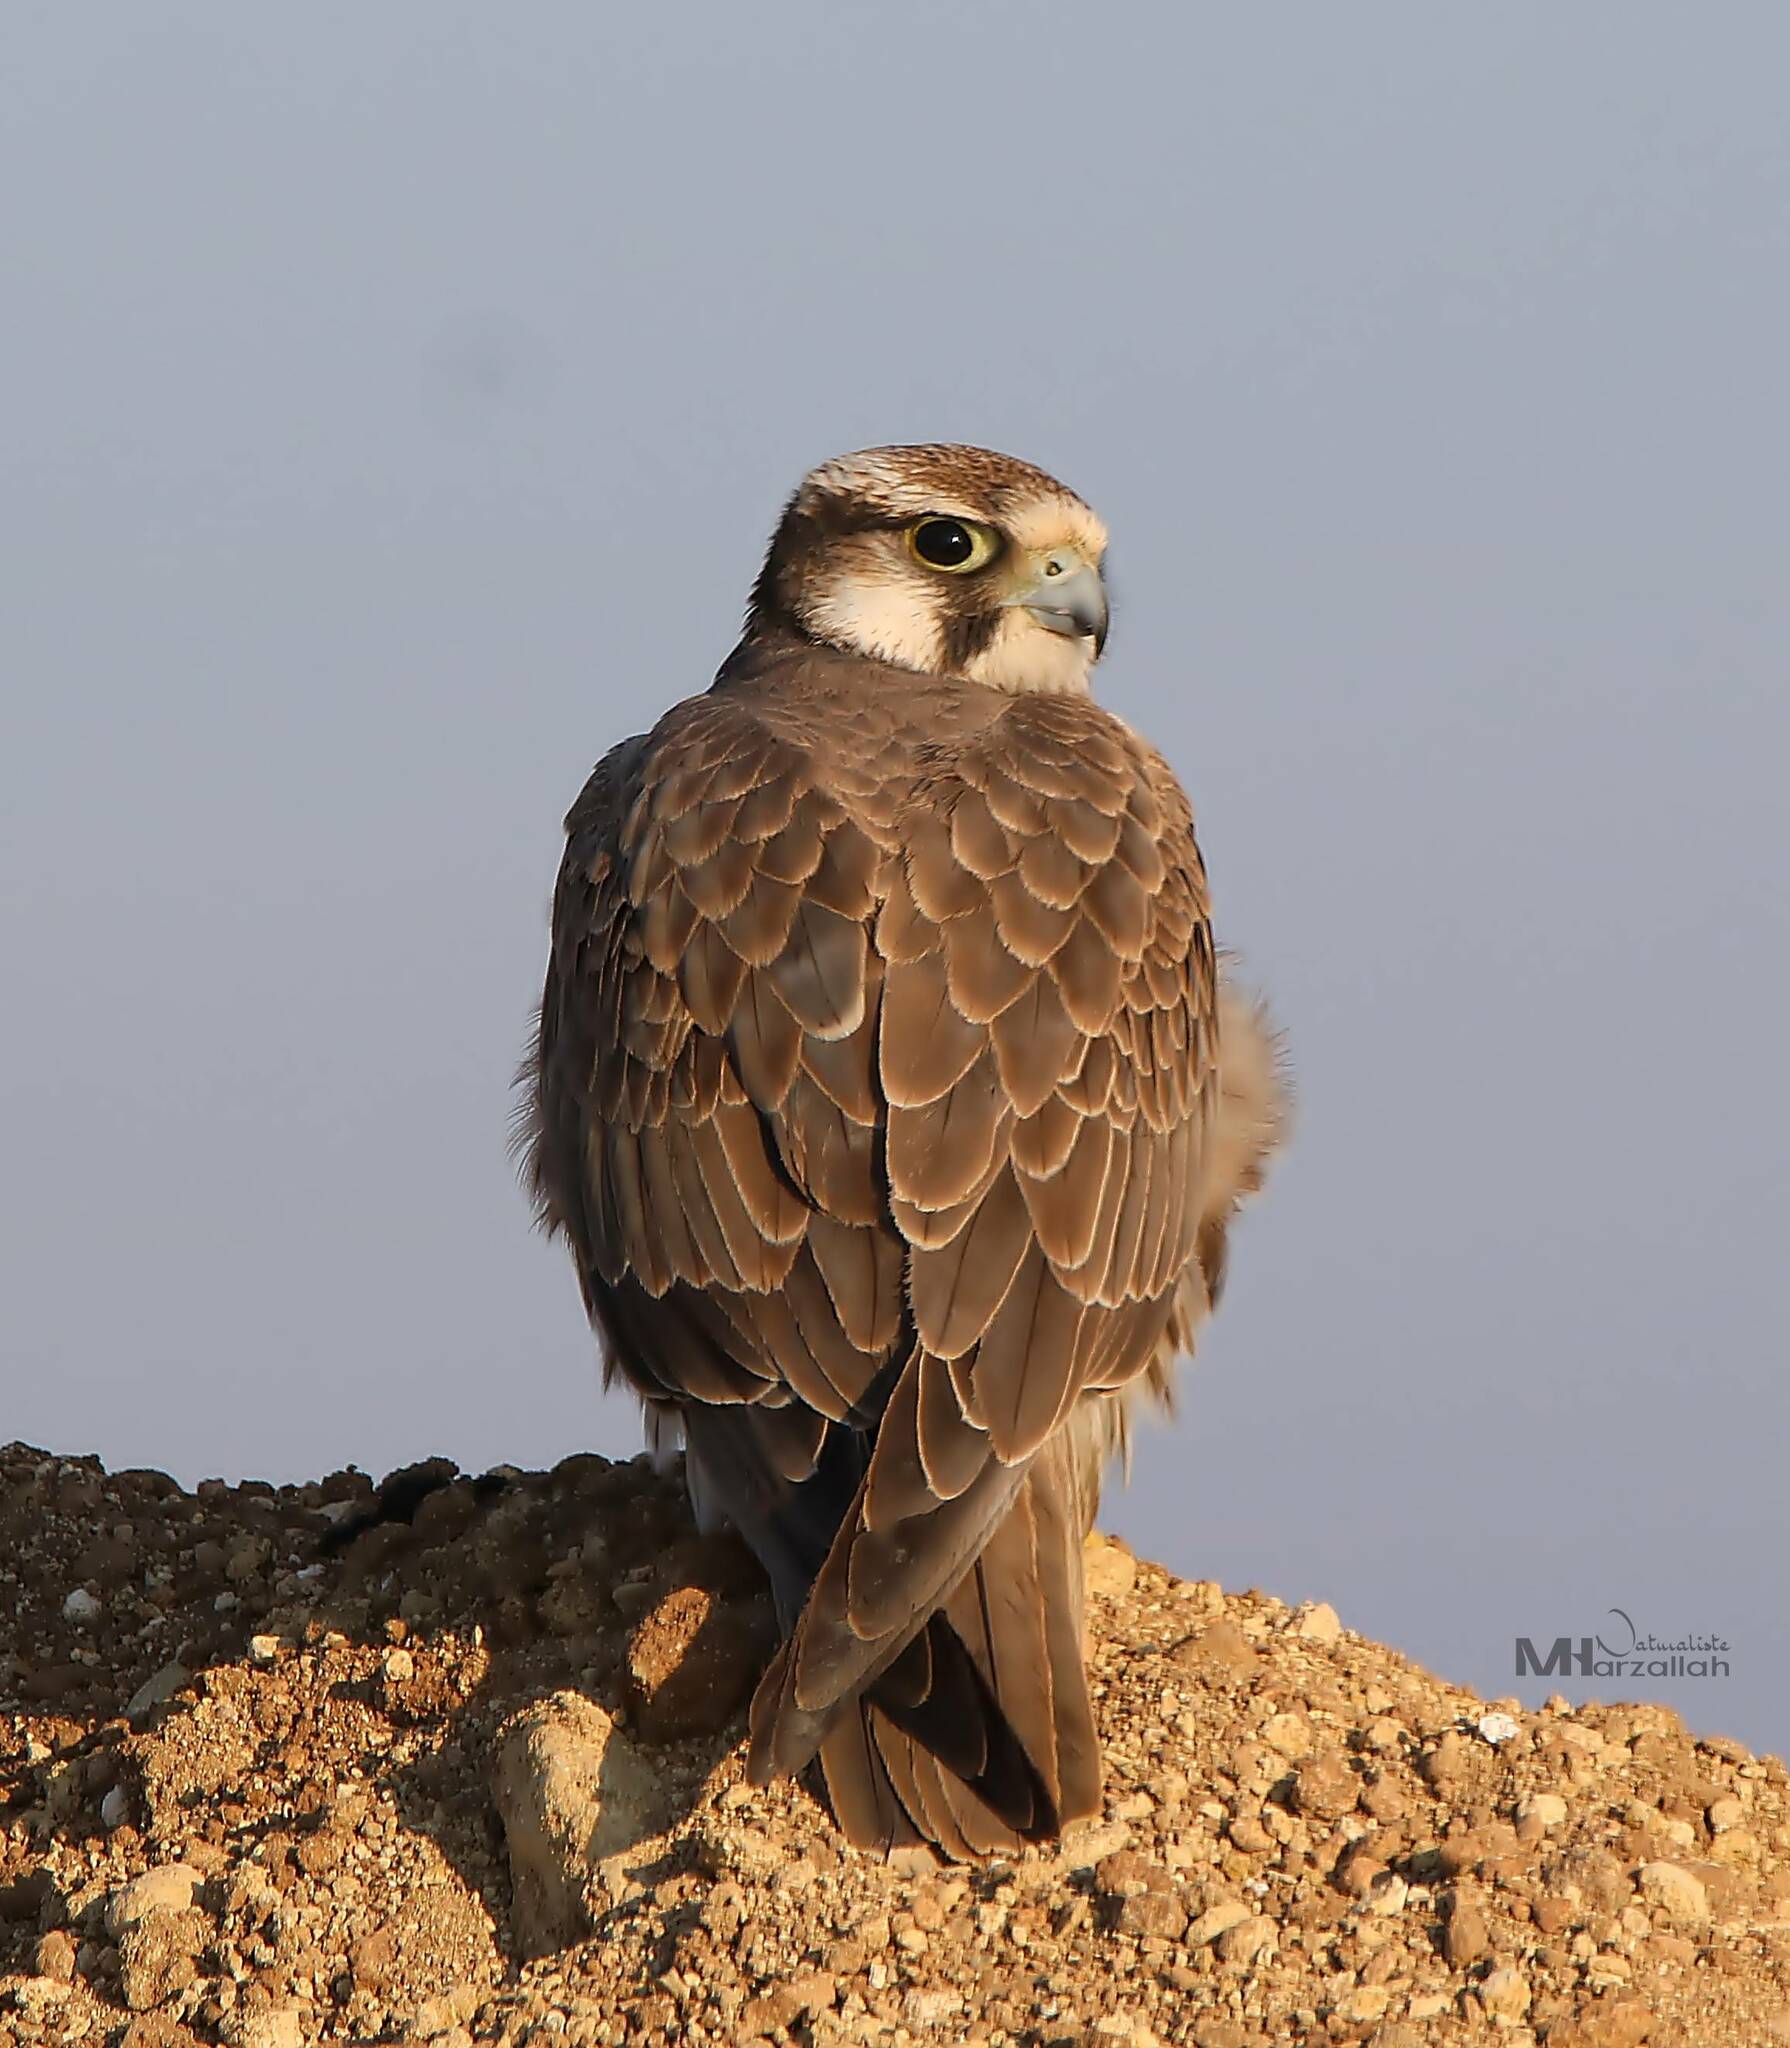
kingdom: Animalia
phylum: Chordata
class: Aves
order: Falconiformes
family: Falconidae
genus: Falco
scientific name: Falco biarmicus
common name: Lanner falcon
